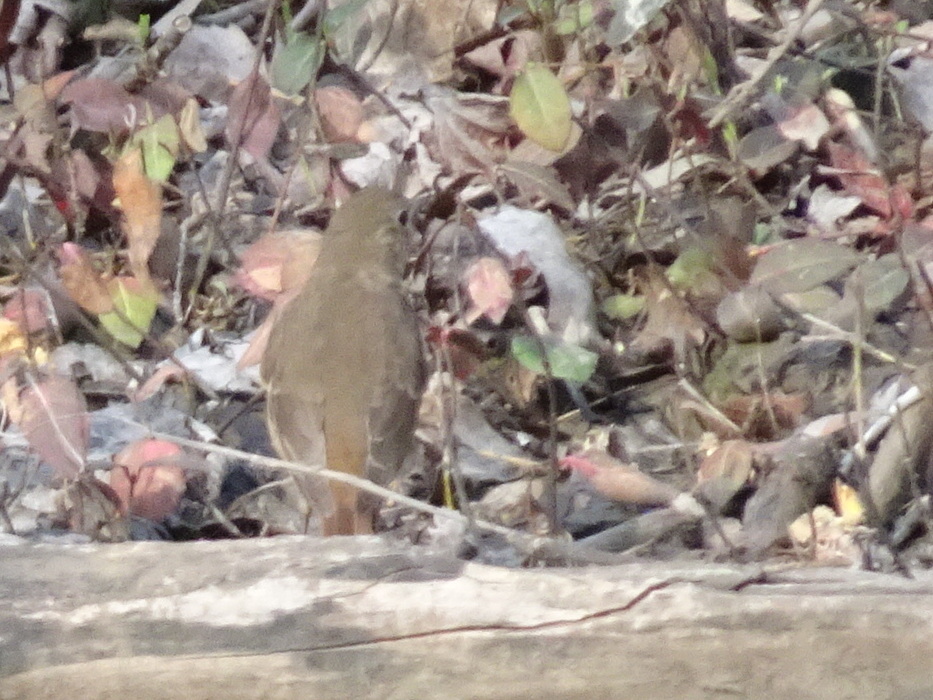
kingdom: Animalia
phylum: Chordata
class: Aves
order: Passeriformes
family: Turdidae
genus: Catharus
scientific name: Catharus guttatus
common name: Hermit thrush
